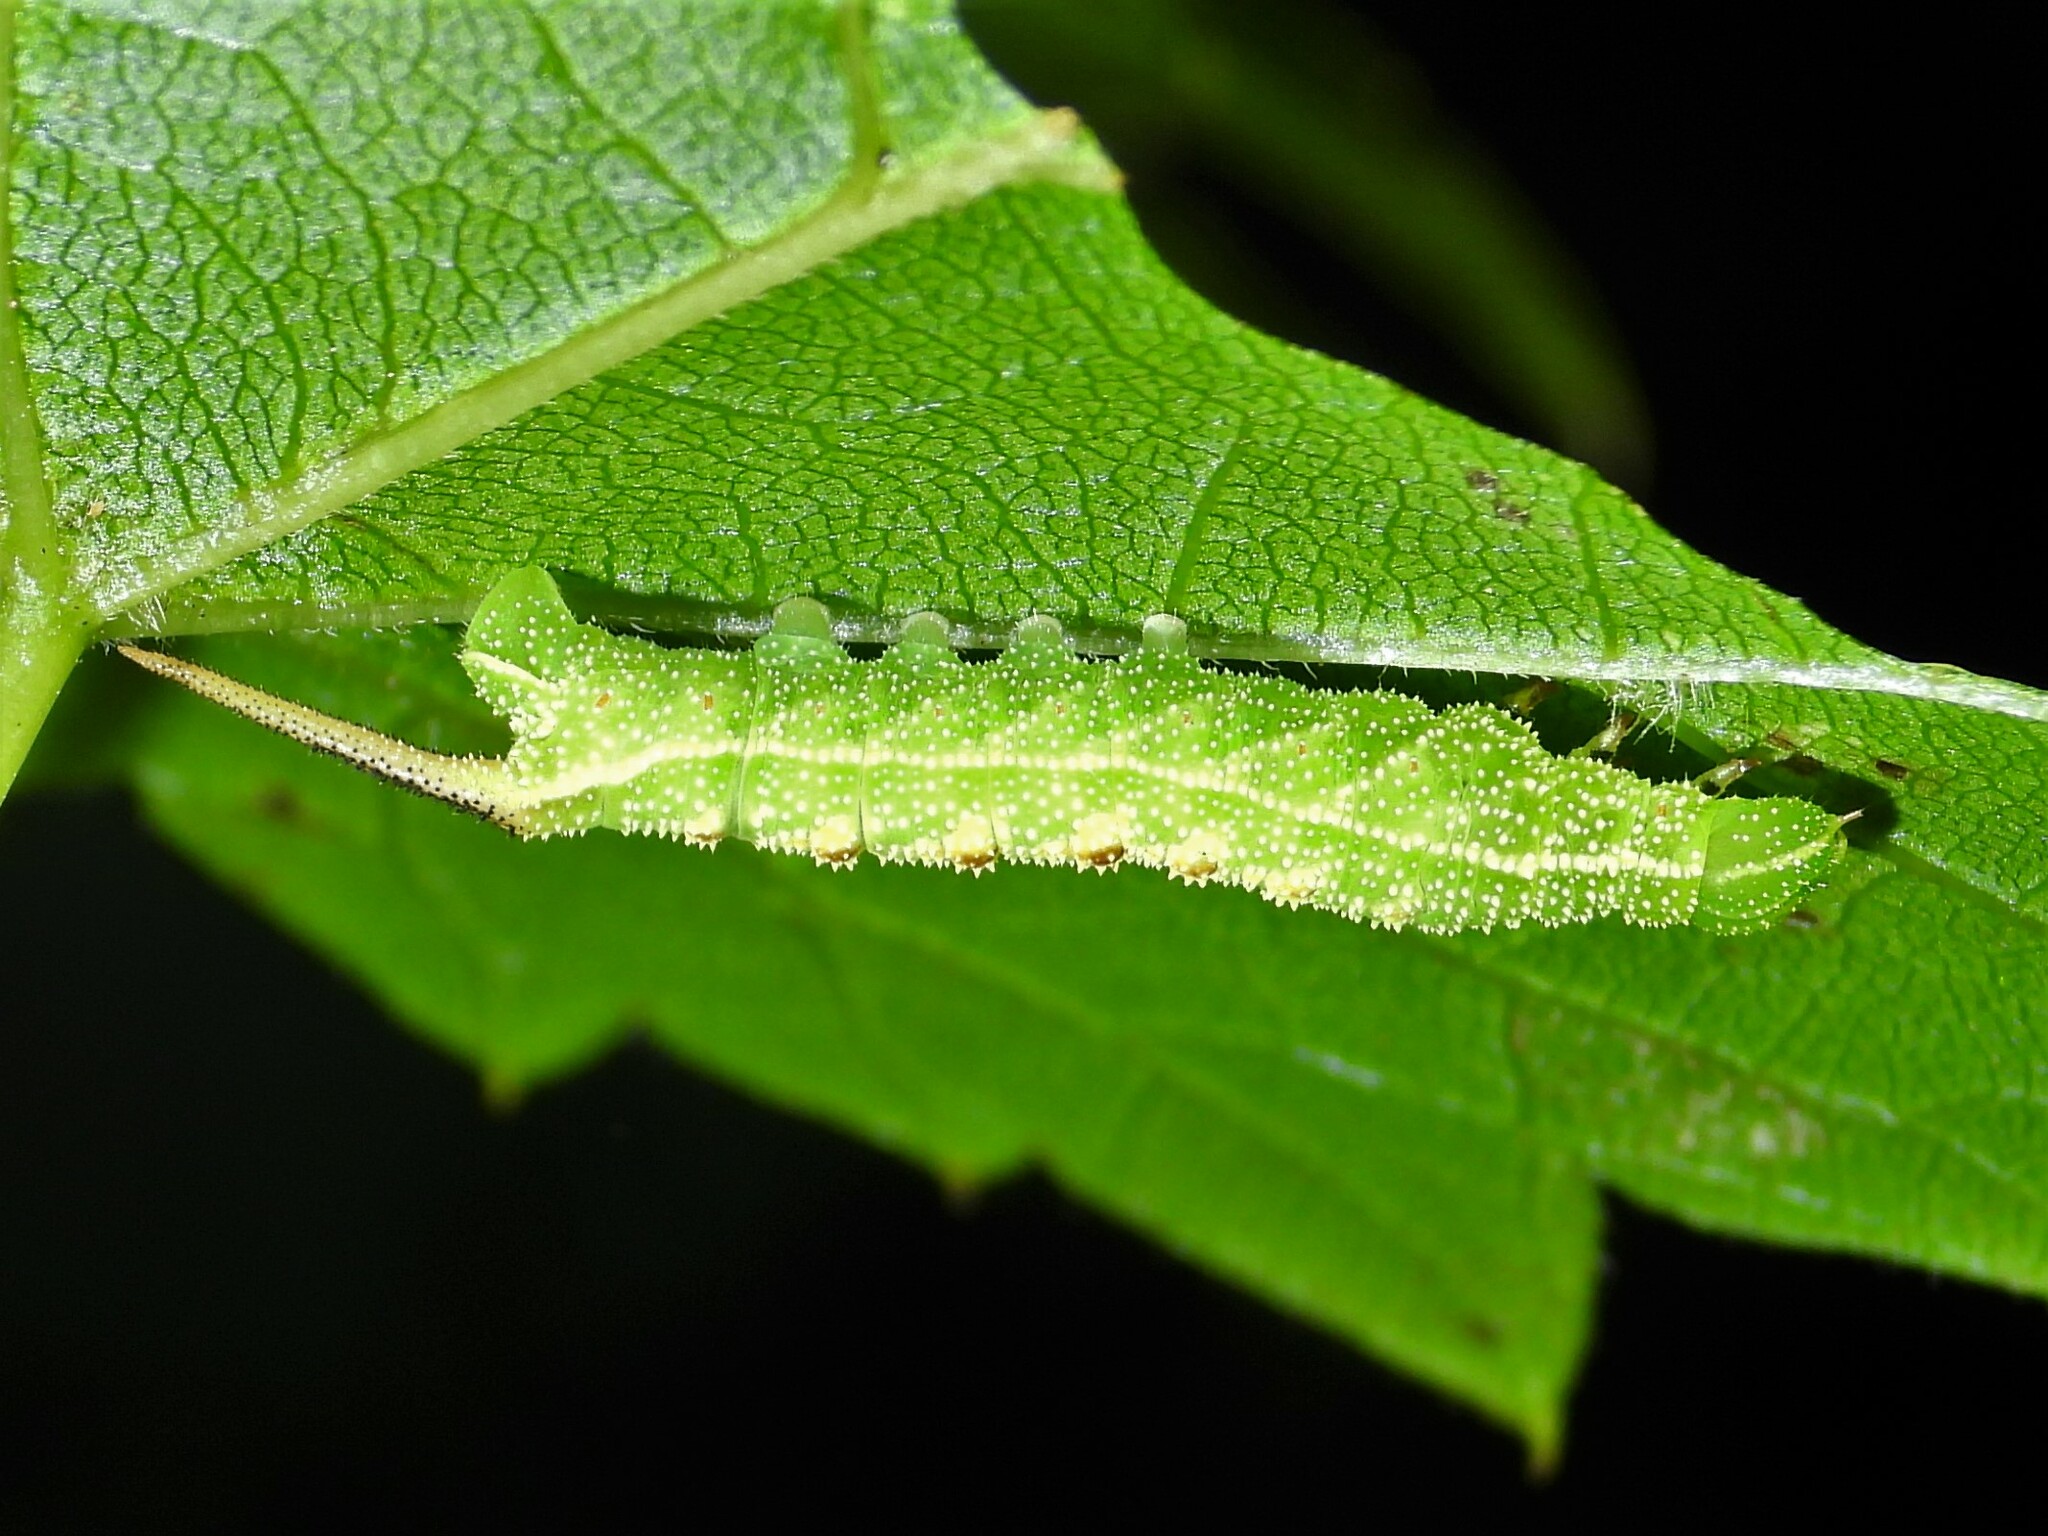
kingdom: Animalia
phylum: Arthropoda
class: Insecta
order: Lepidoptera
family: Sphingidae
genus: Darapsa
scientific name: Darapsa myron
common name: Hog sphinx
